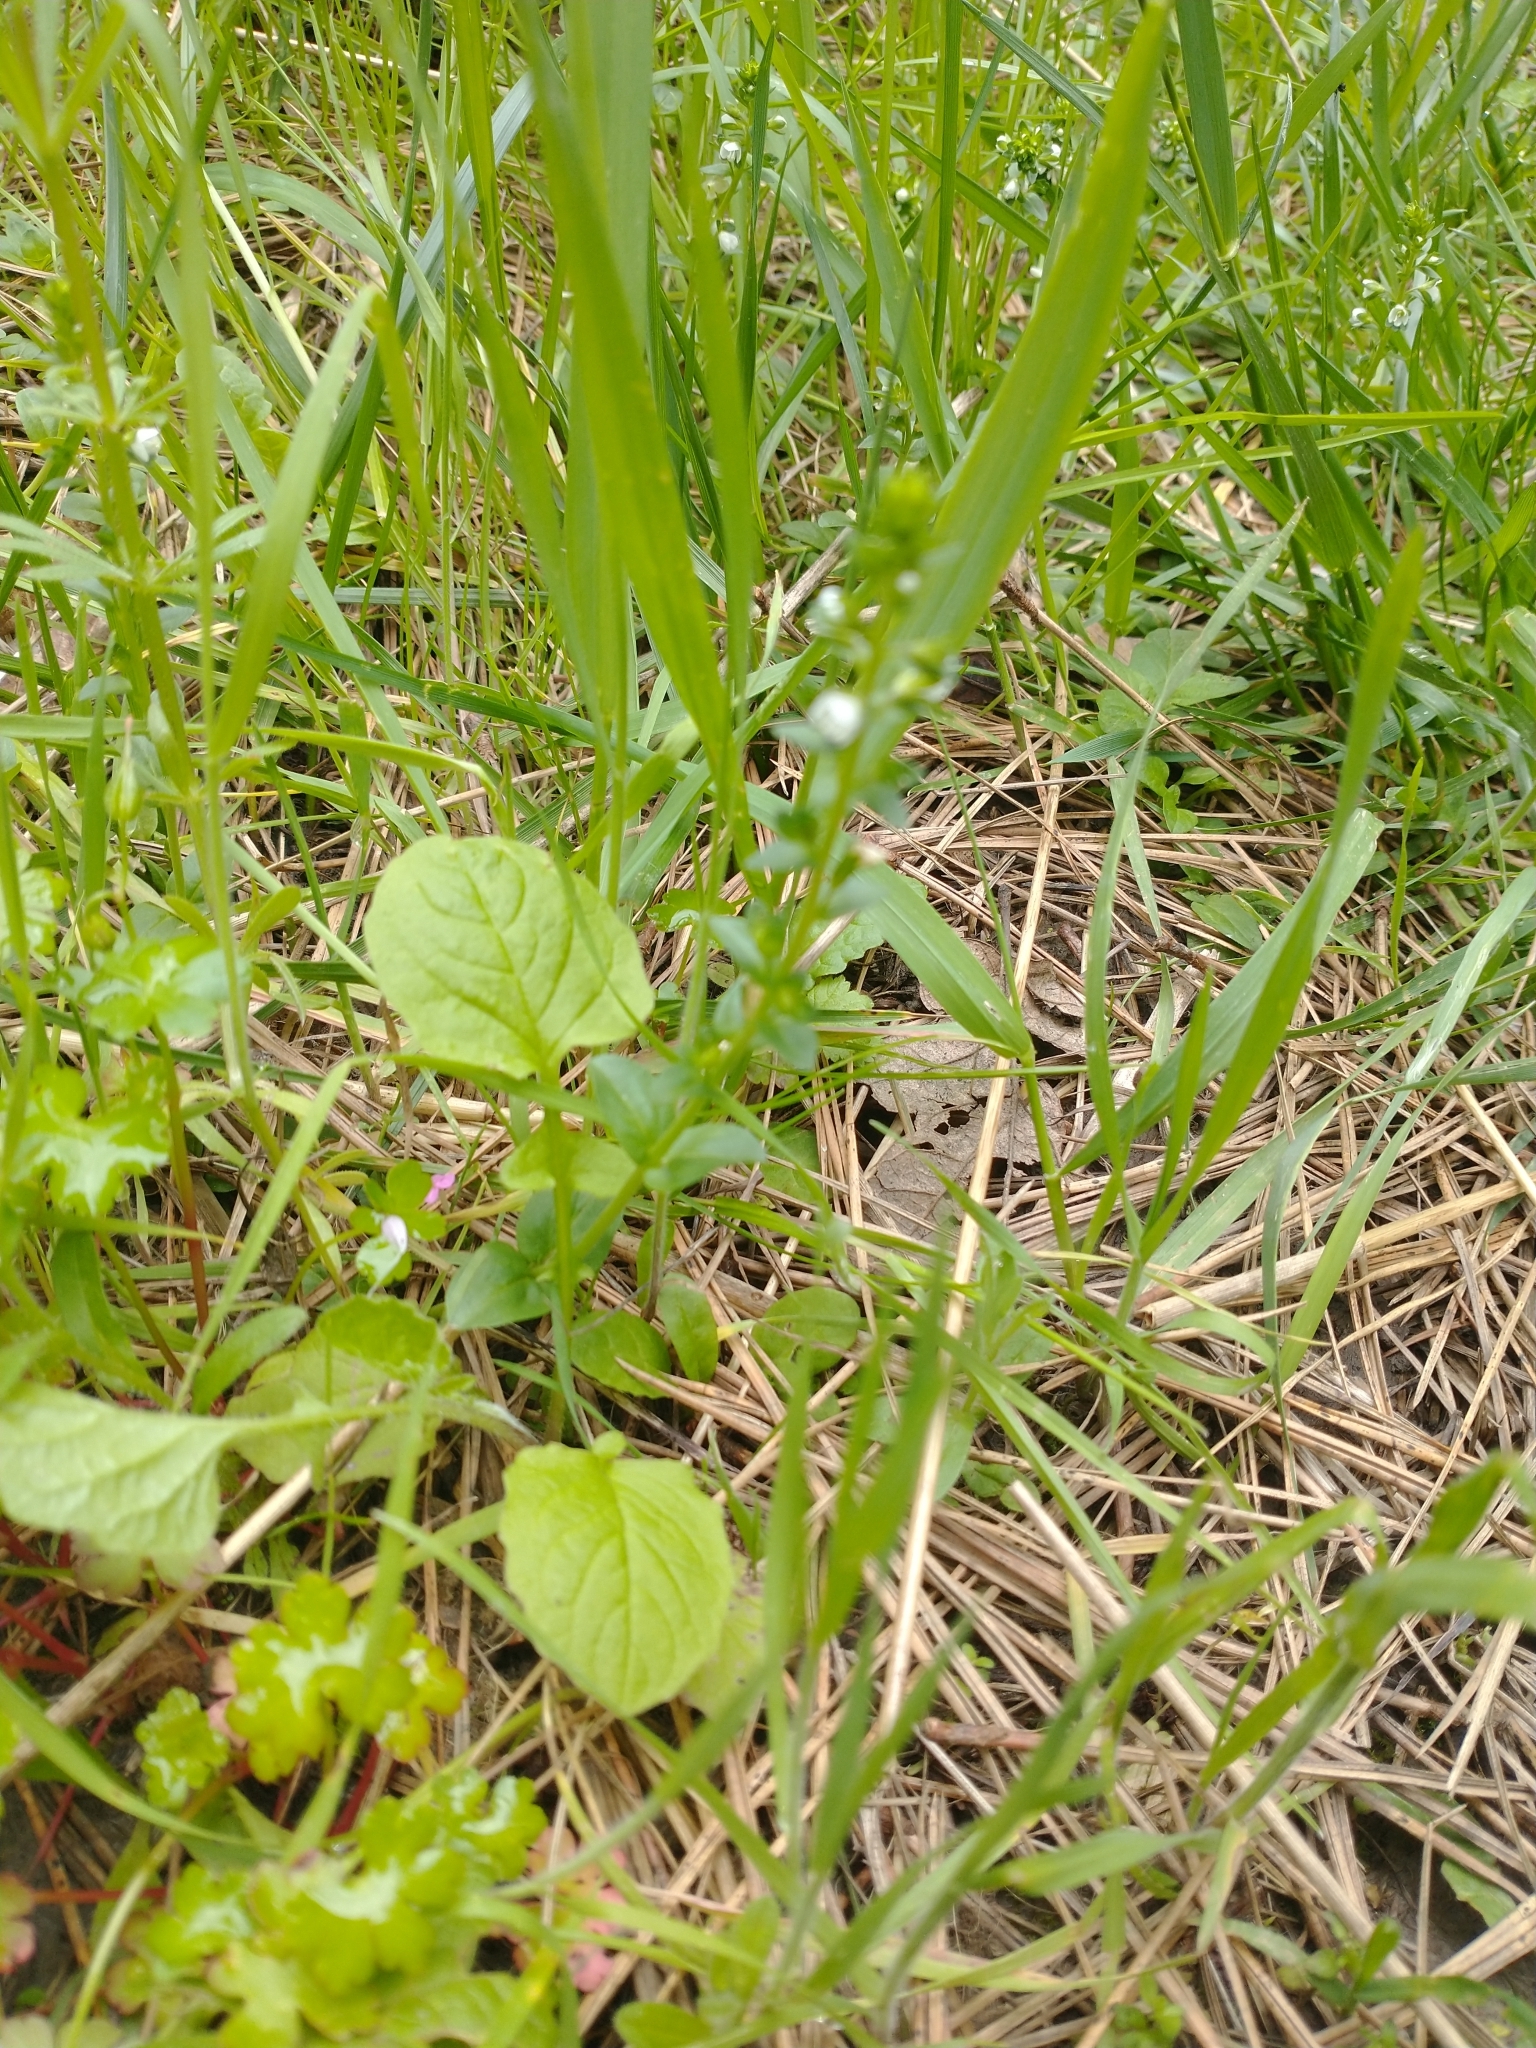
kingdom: Plantae
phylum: Tracheophyta
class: Magnoliopsida
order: Lamiales
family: Plantaginaceae
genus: Veronica
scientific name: Veronica serpyllifolia
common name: Thyme-leaved speedwell
